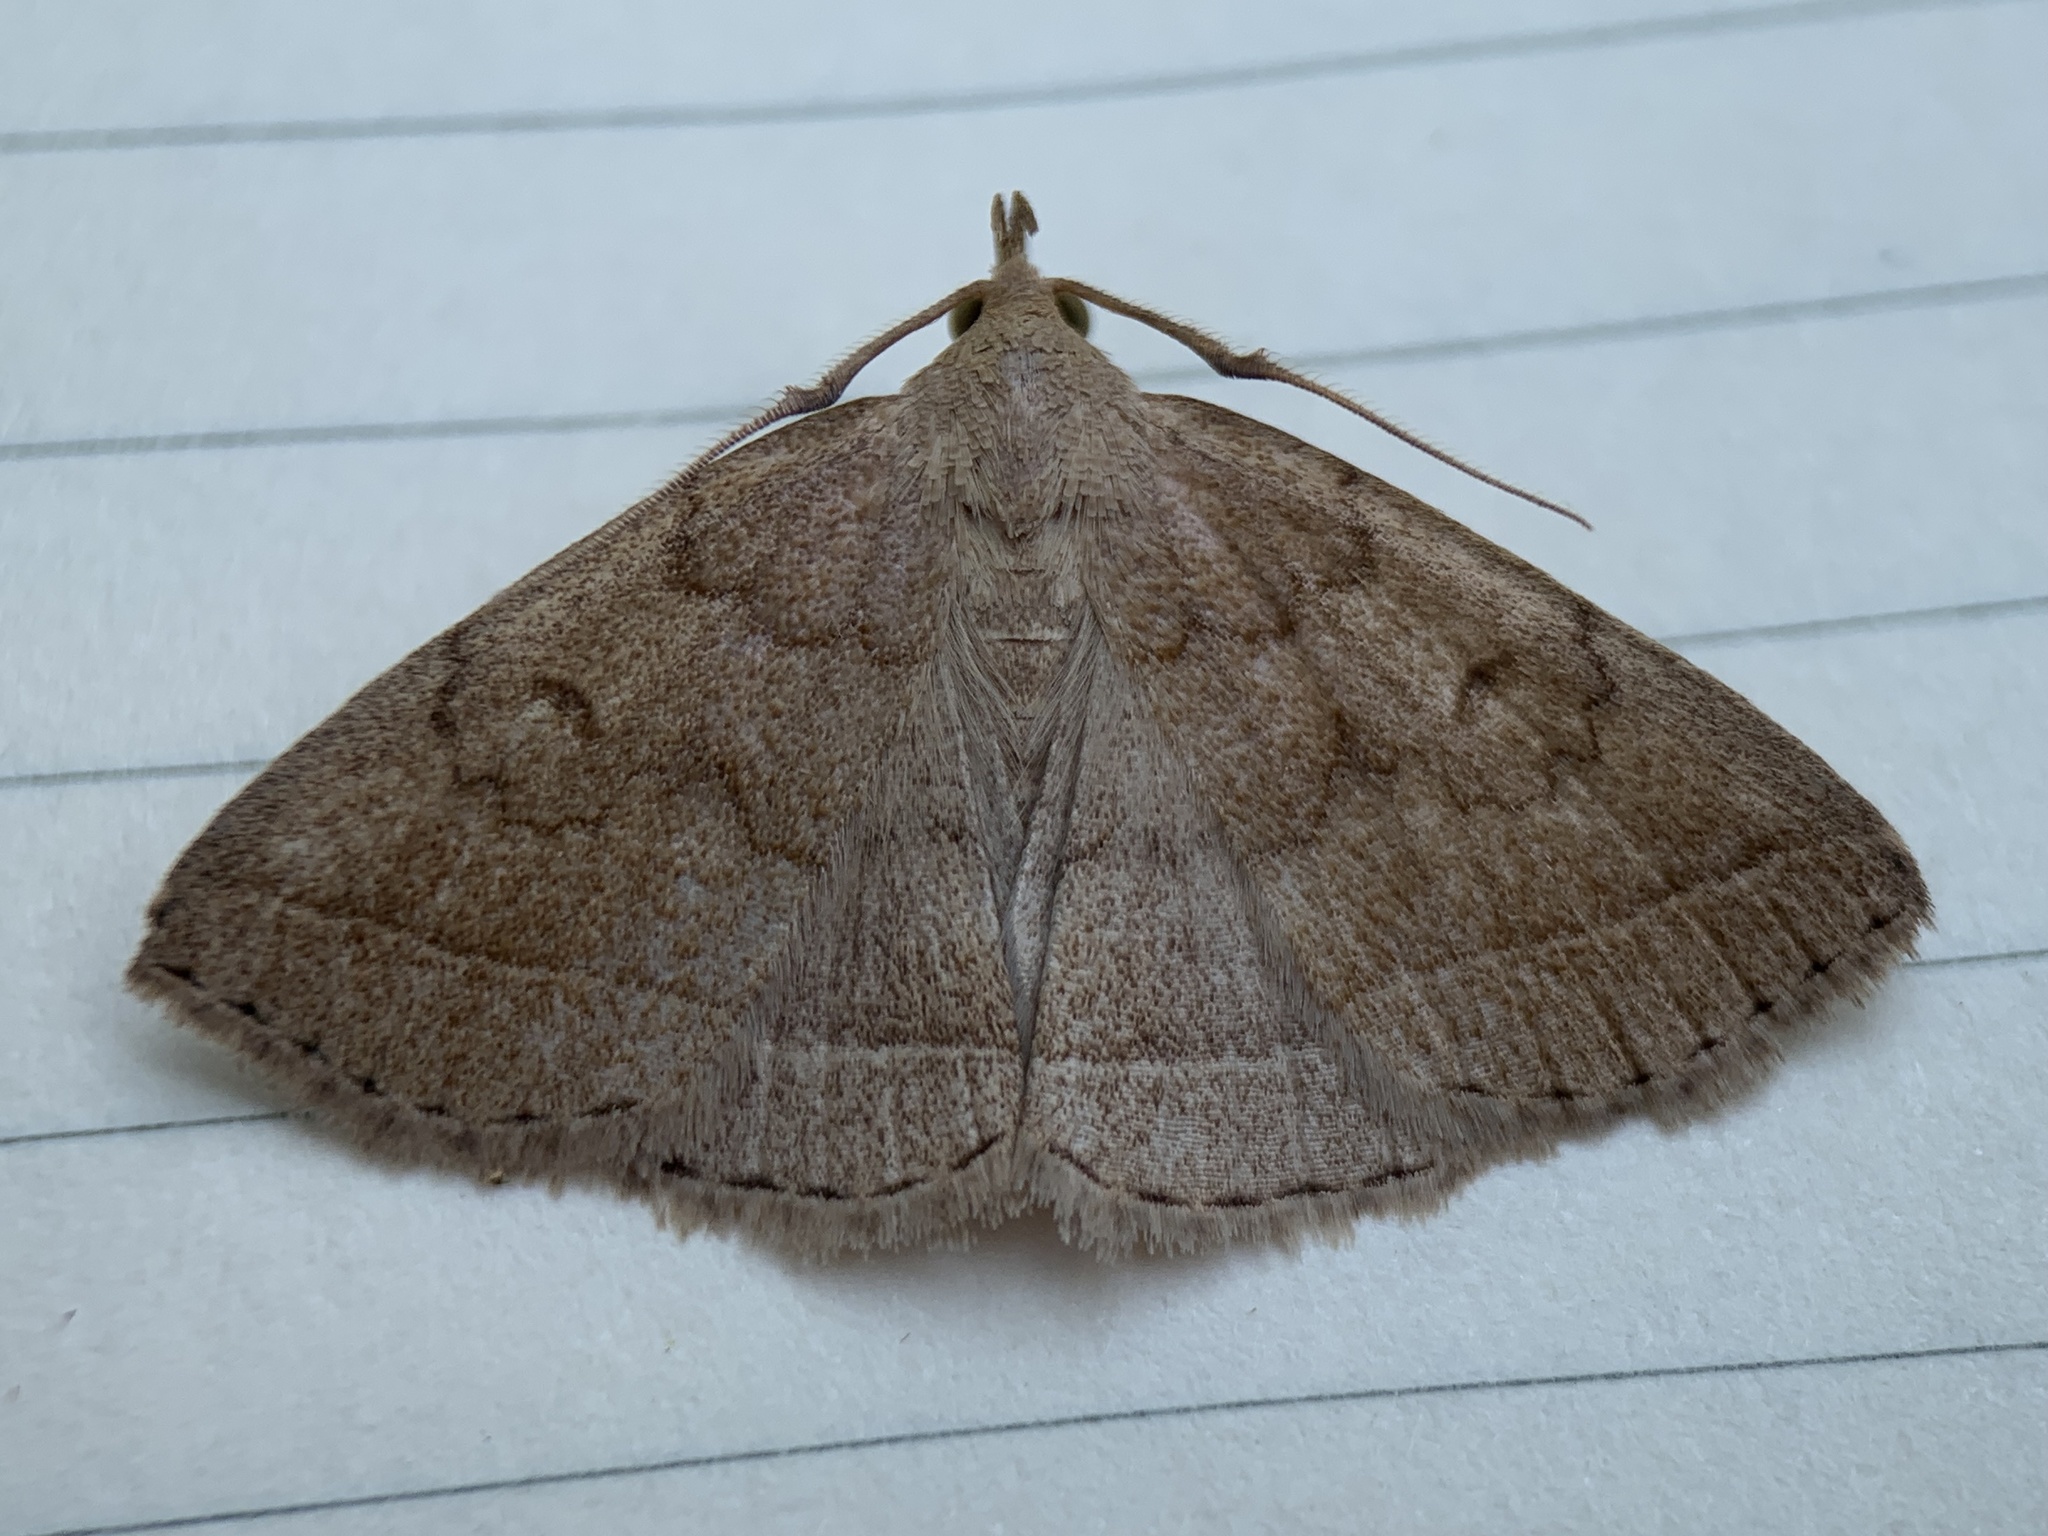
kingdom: Animalia
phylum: Arthropoda
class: Insecta
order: Lepidoptera
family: Erebidae
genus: Zanclognatha
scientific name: Zanclognatha jacchusalis
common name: Yellowish zanclognatha
